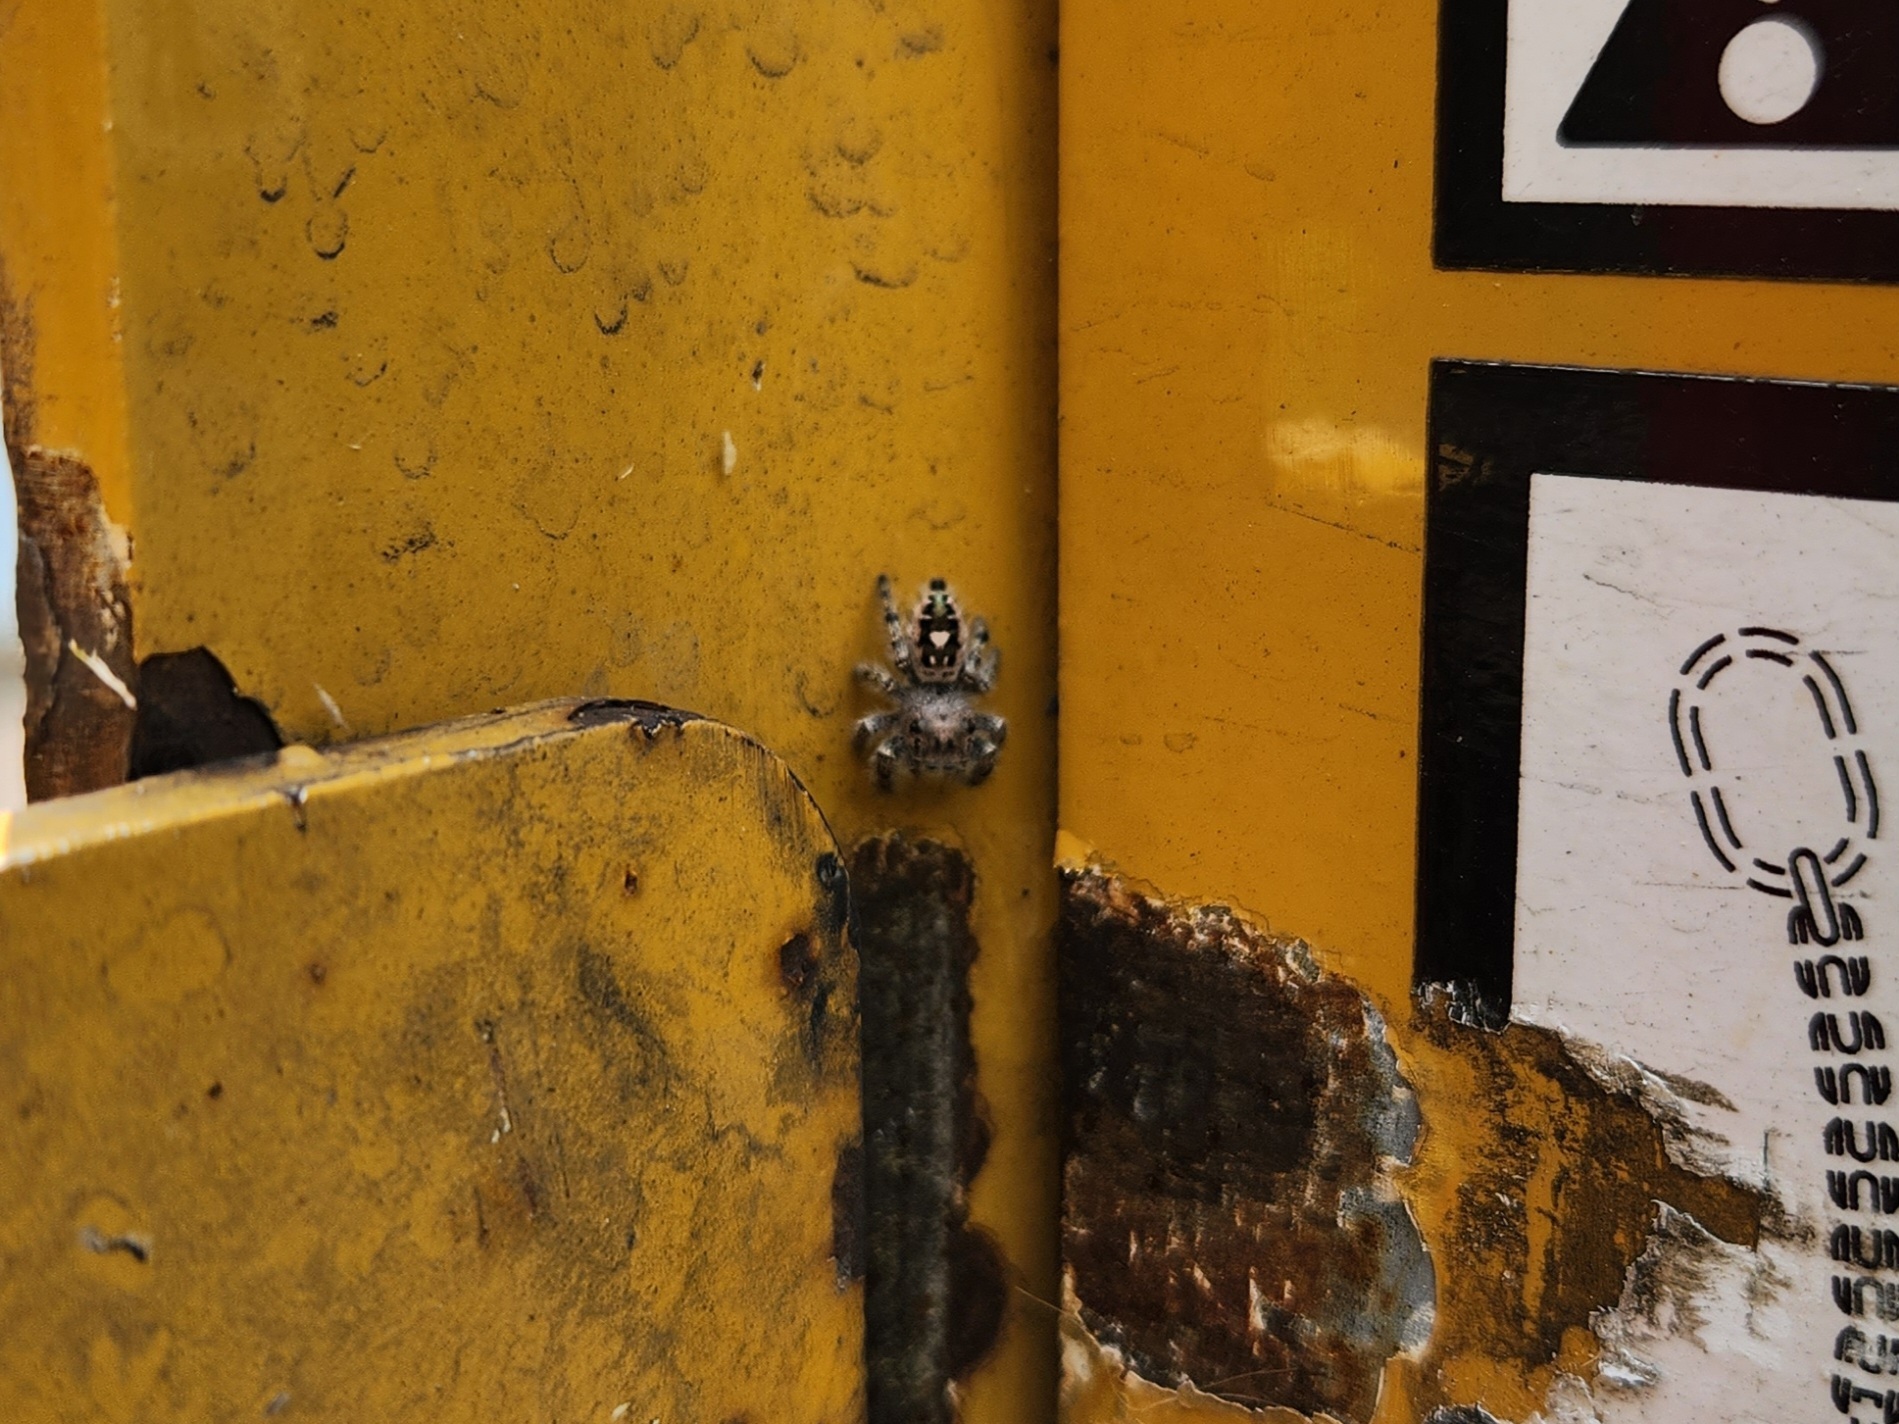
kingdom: Animalia
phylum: Arthropoda
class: Arachnida
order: Araneae
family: Salticidae
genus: Phidippus
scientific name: Phidippus putnami
